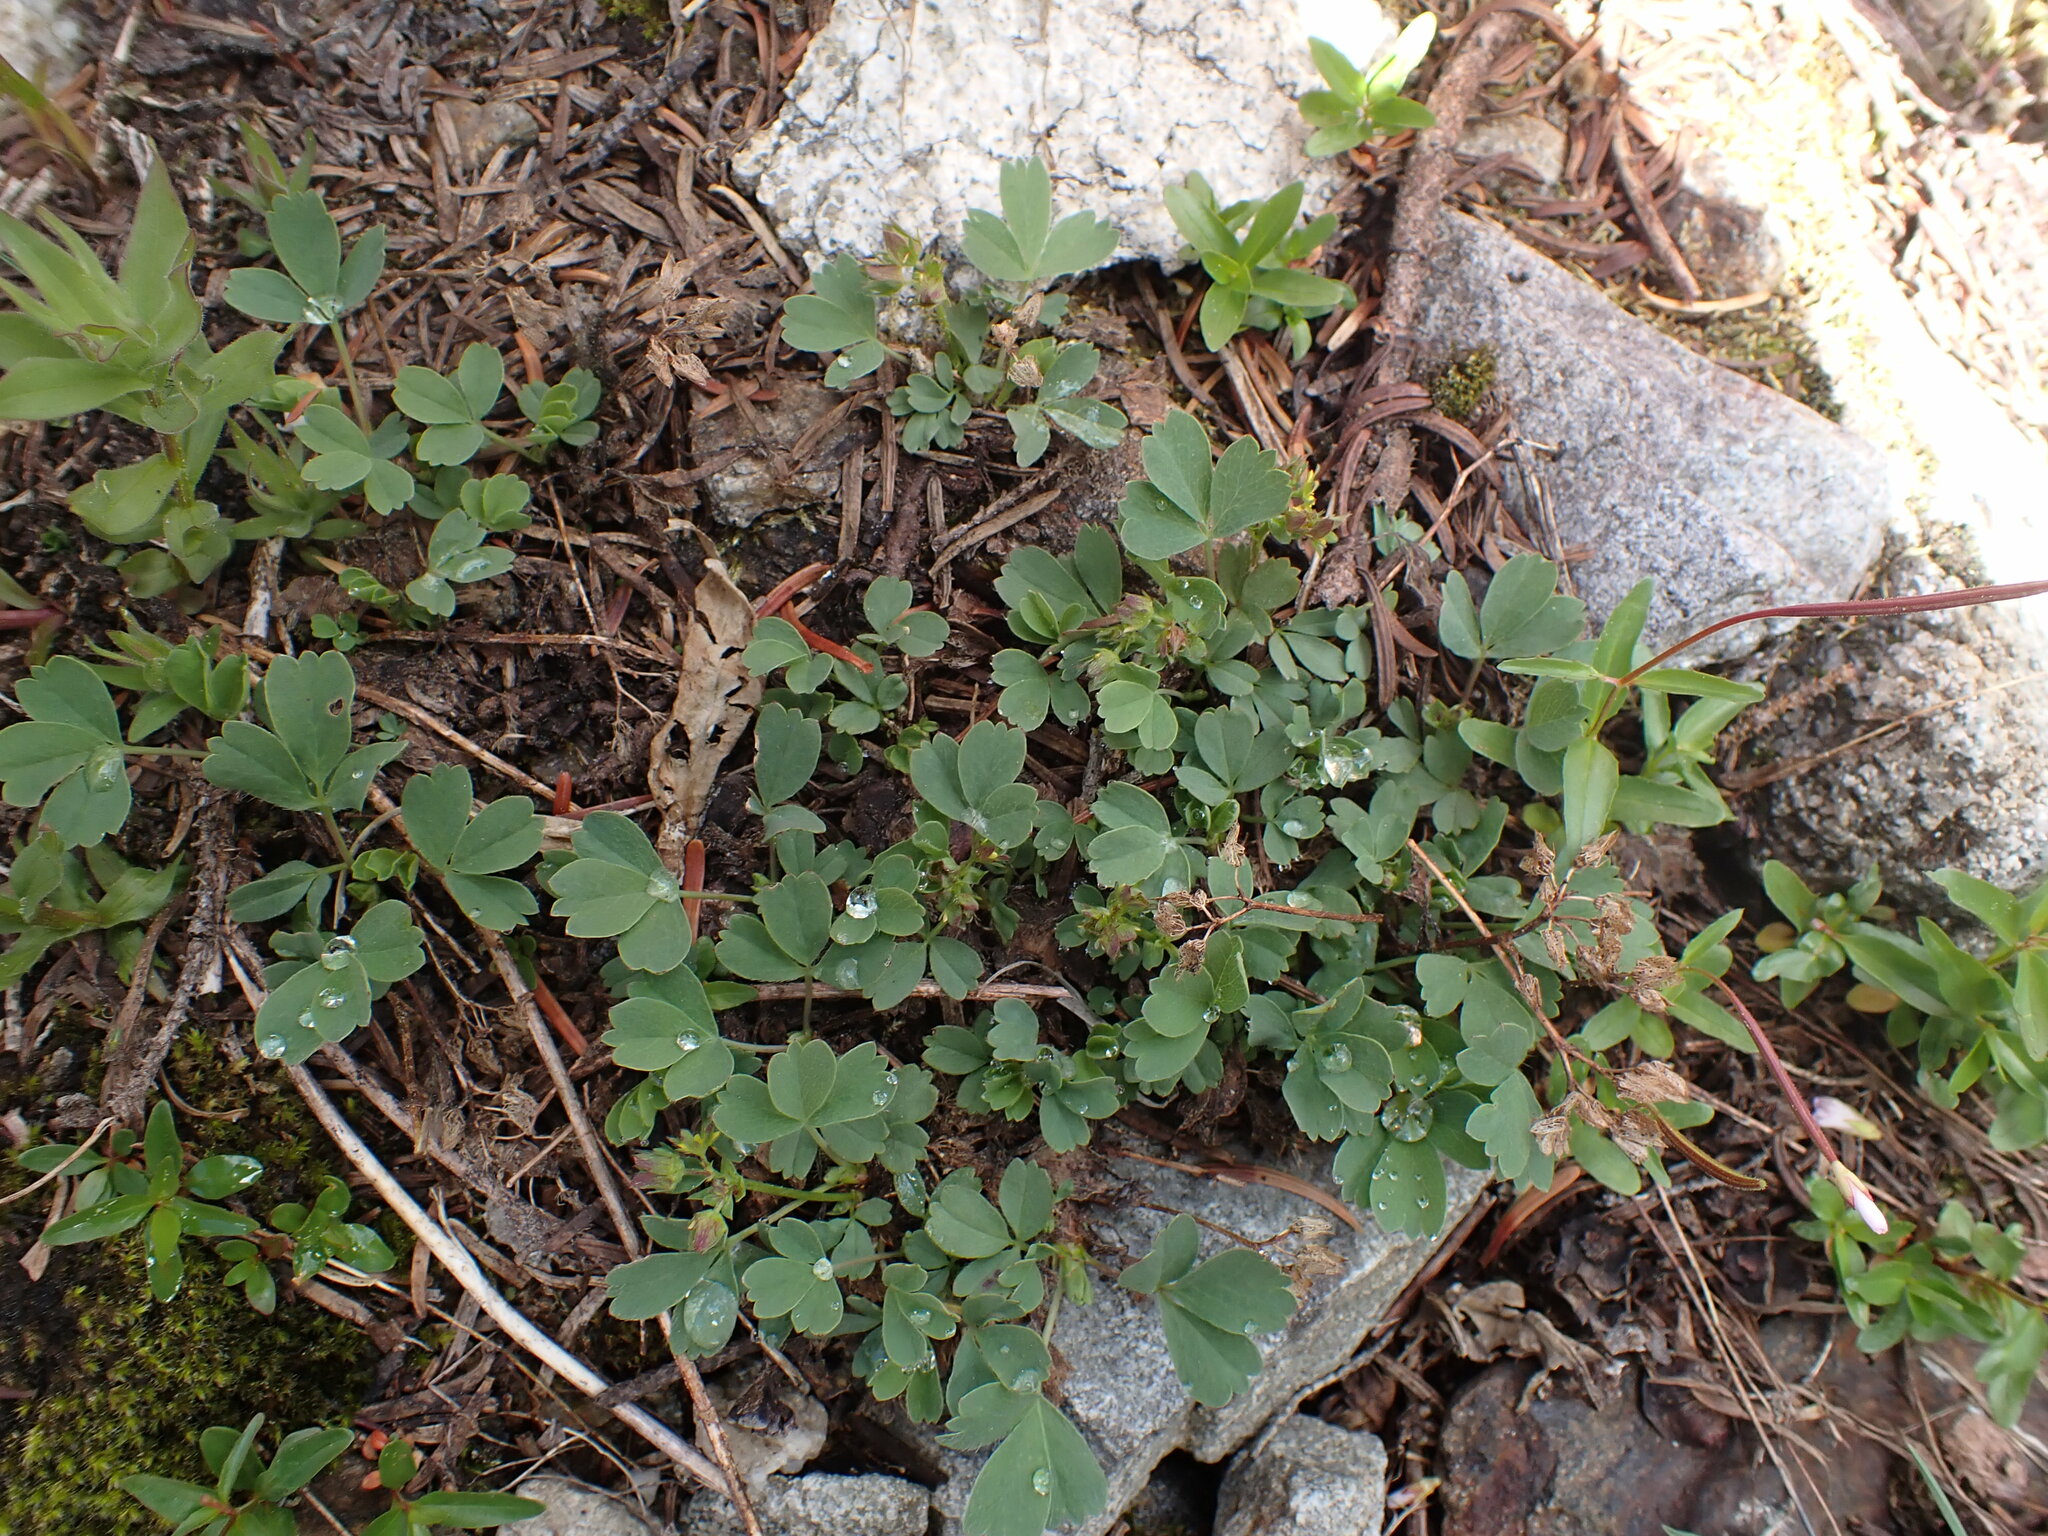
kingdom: Plantae
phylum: Tracheophyta
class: Magnoliopsida
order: Rosales
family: Rosaceae
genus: Sibbaldia
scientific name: Sibbaldia procumbens
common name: Creeping sibbaldia
